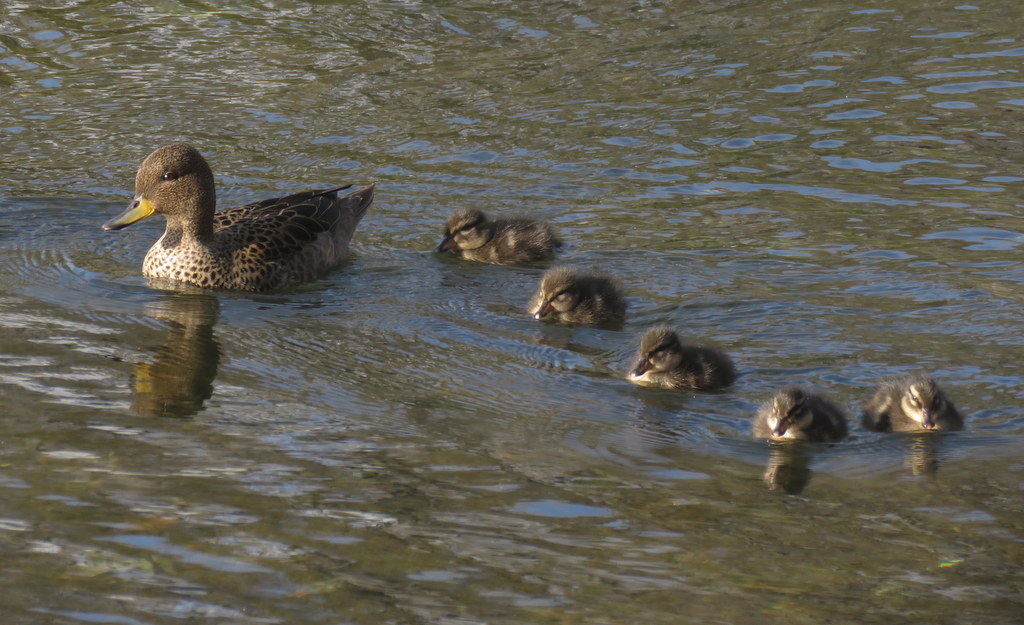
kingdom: Animalia
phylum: Chordata
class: Aves
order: Anseriformes
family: Anatidae
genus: Anas
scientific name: Anas flavirostris
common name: Yellow-billed teal
